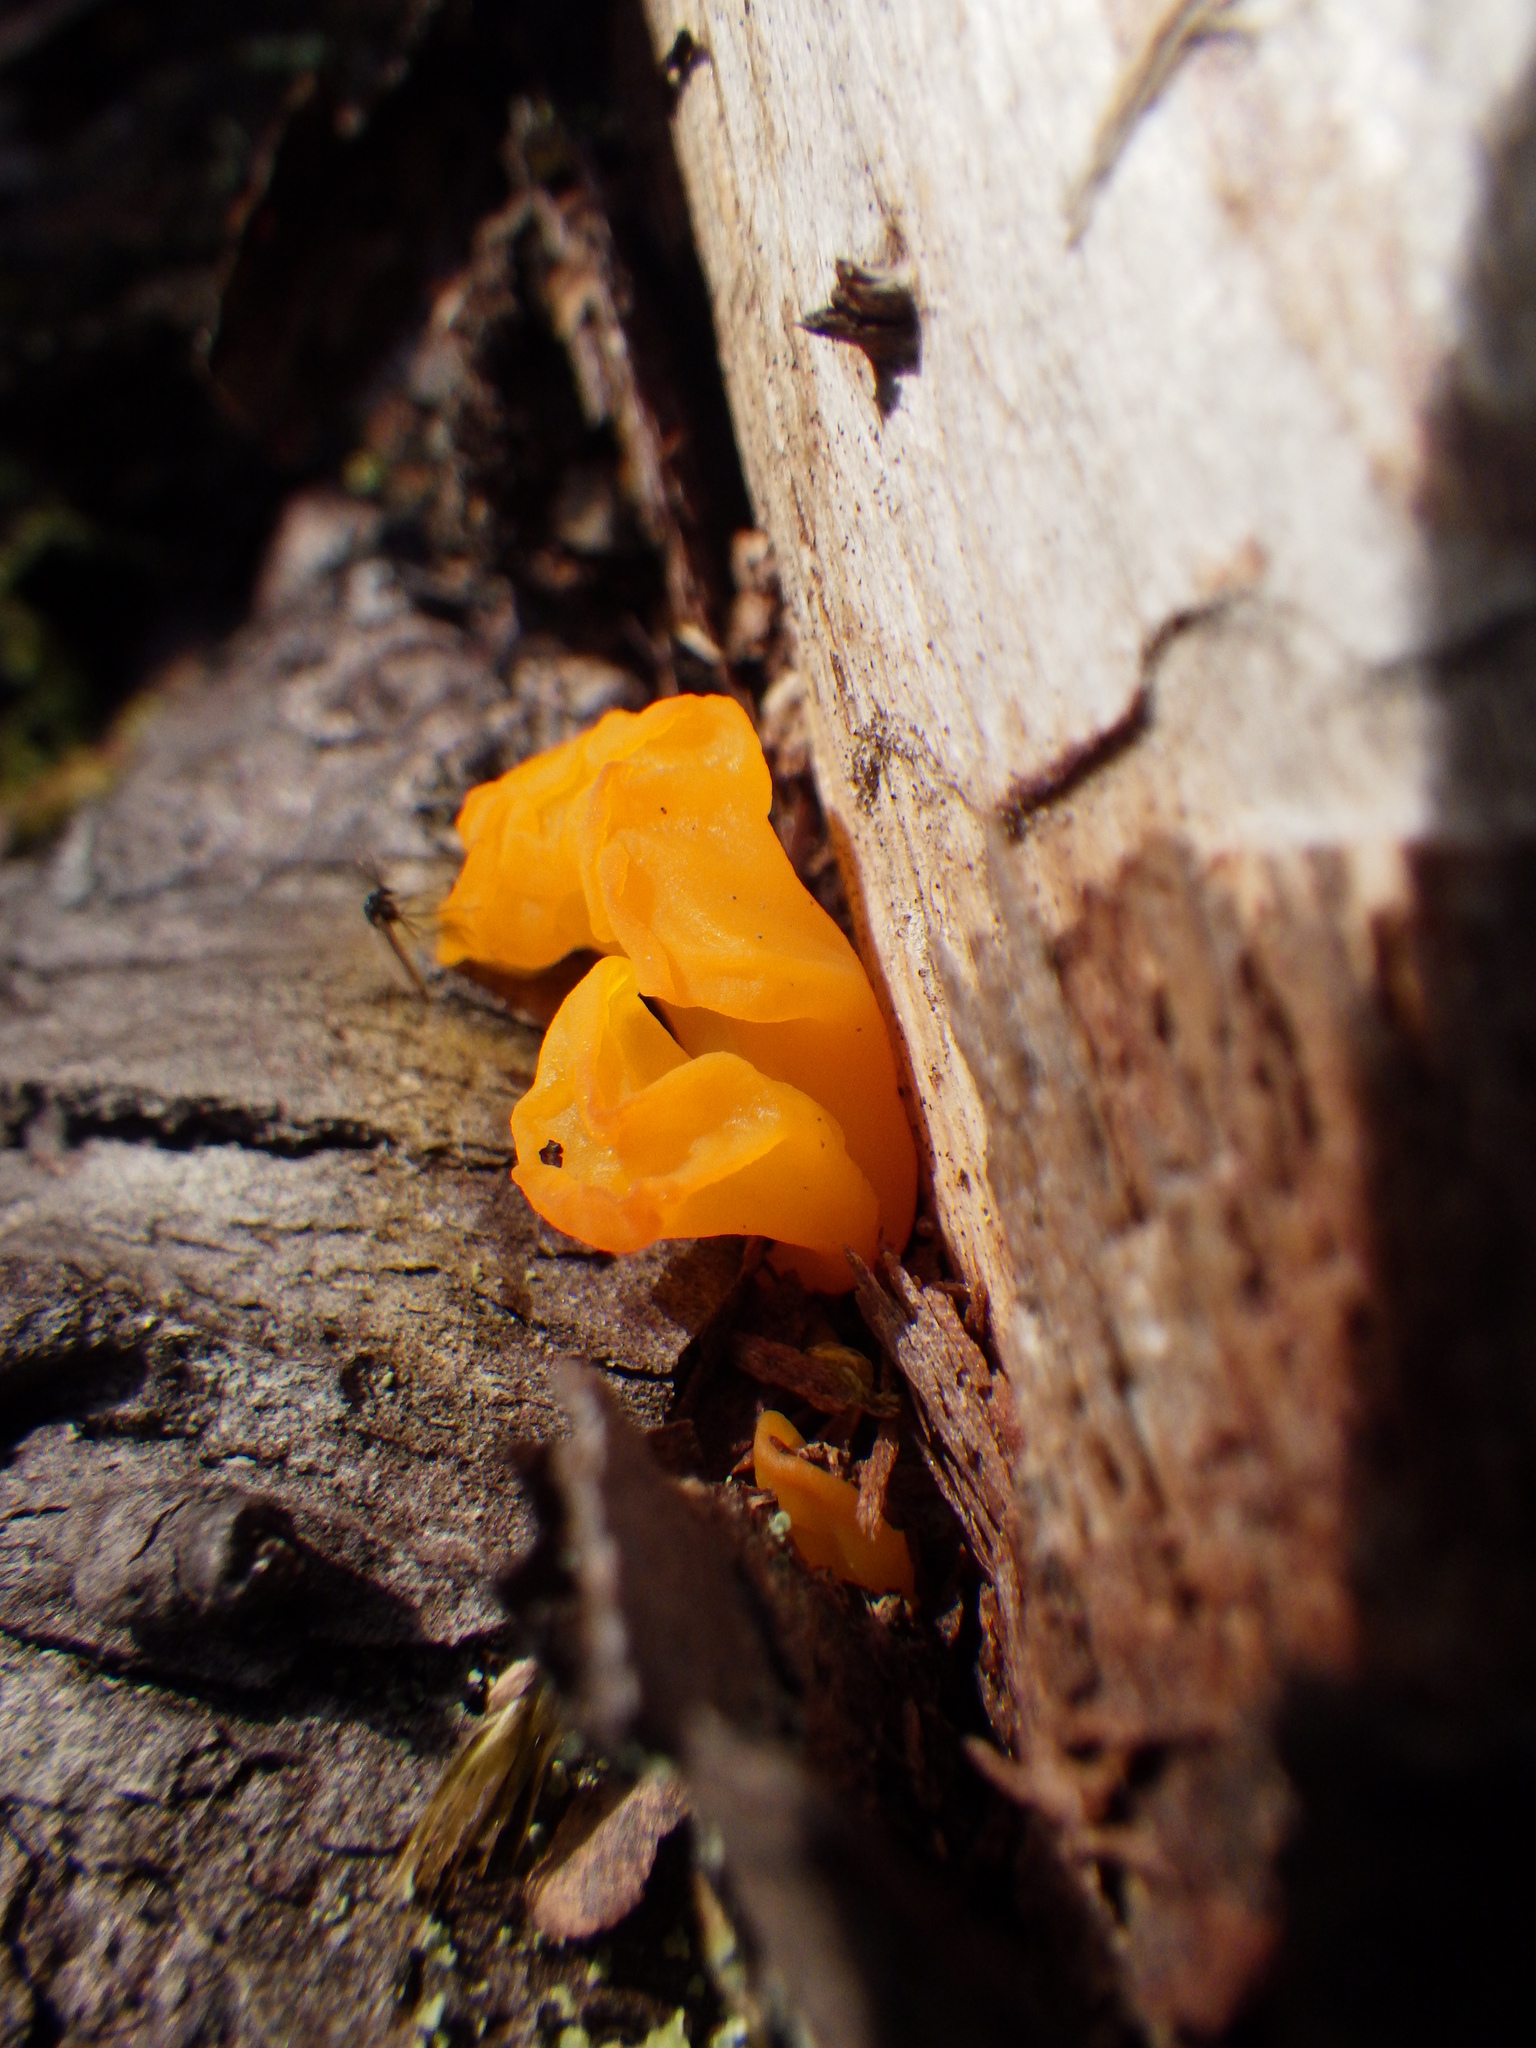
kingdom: Fungi
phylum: Basidiomycota
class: Dacrymycetes
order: Dacrymycetales
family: Dacrymycetaceae
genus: Dacrymyces
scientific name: Dacrymyces chrysospermus
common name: Orange jelly spot
